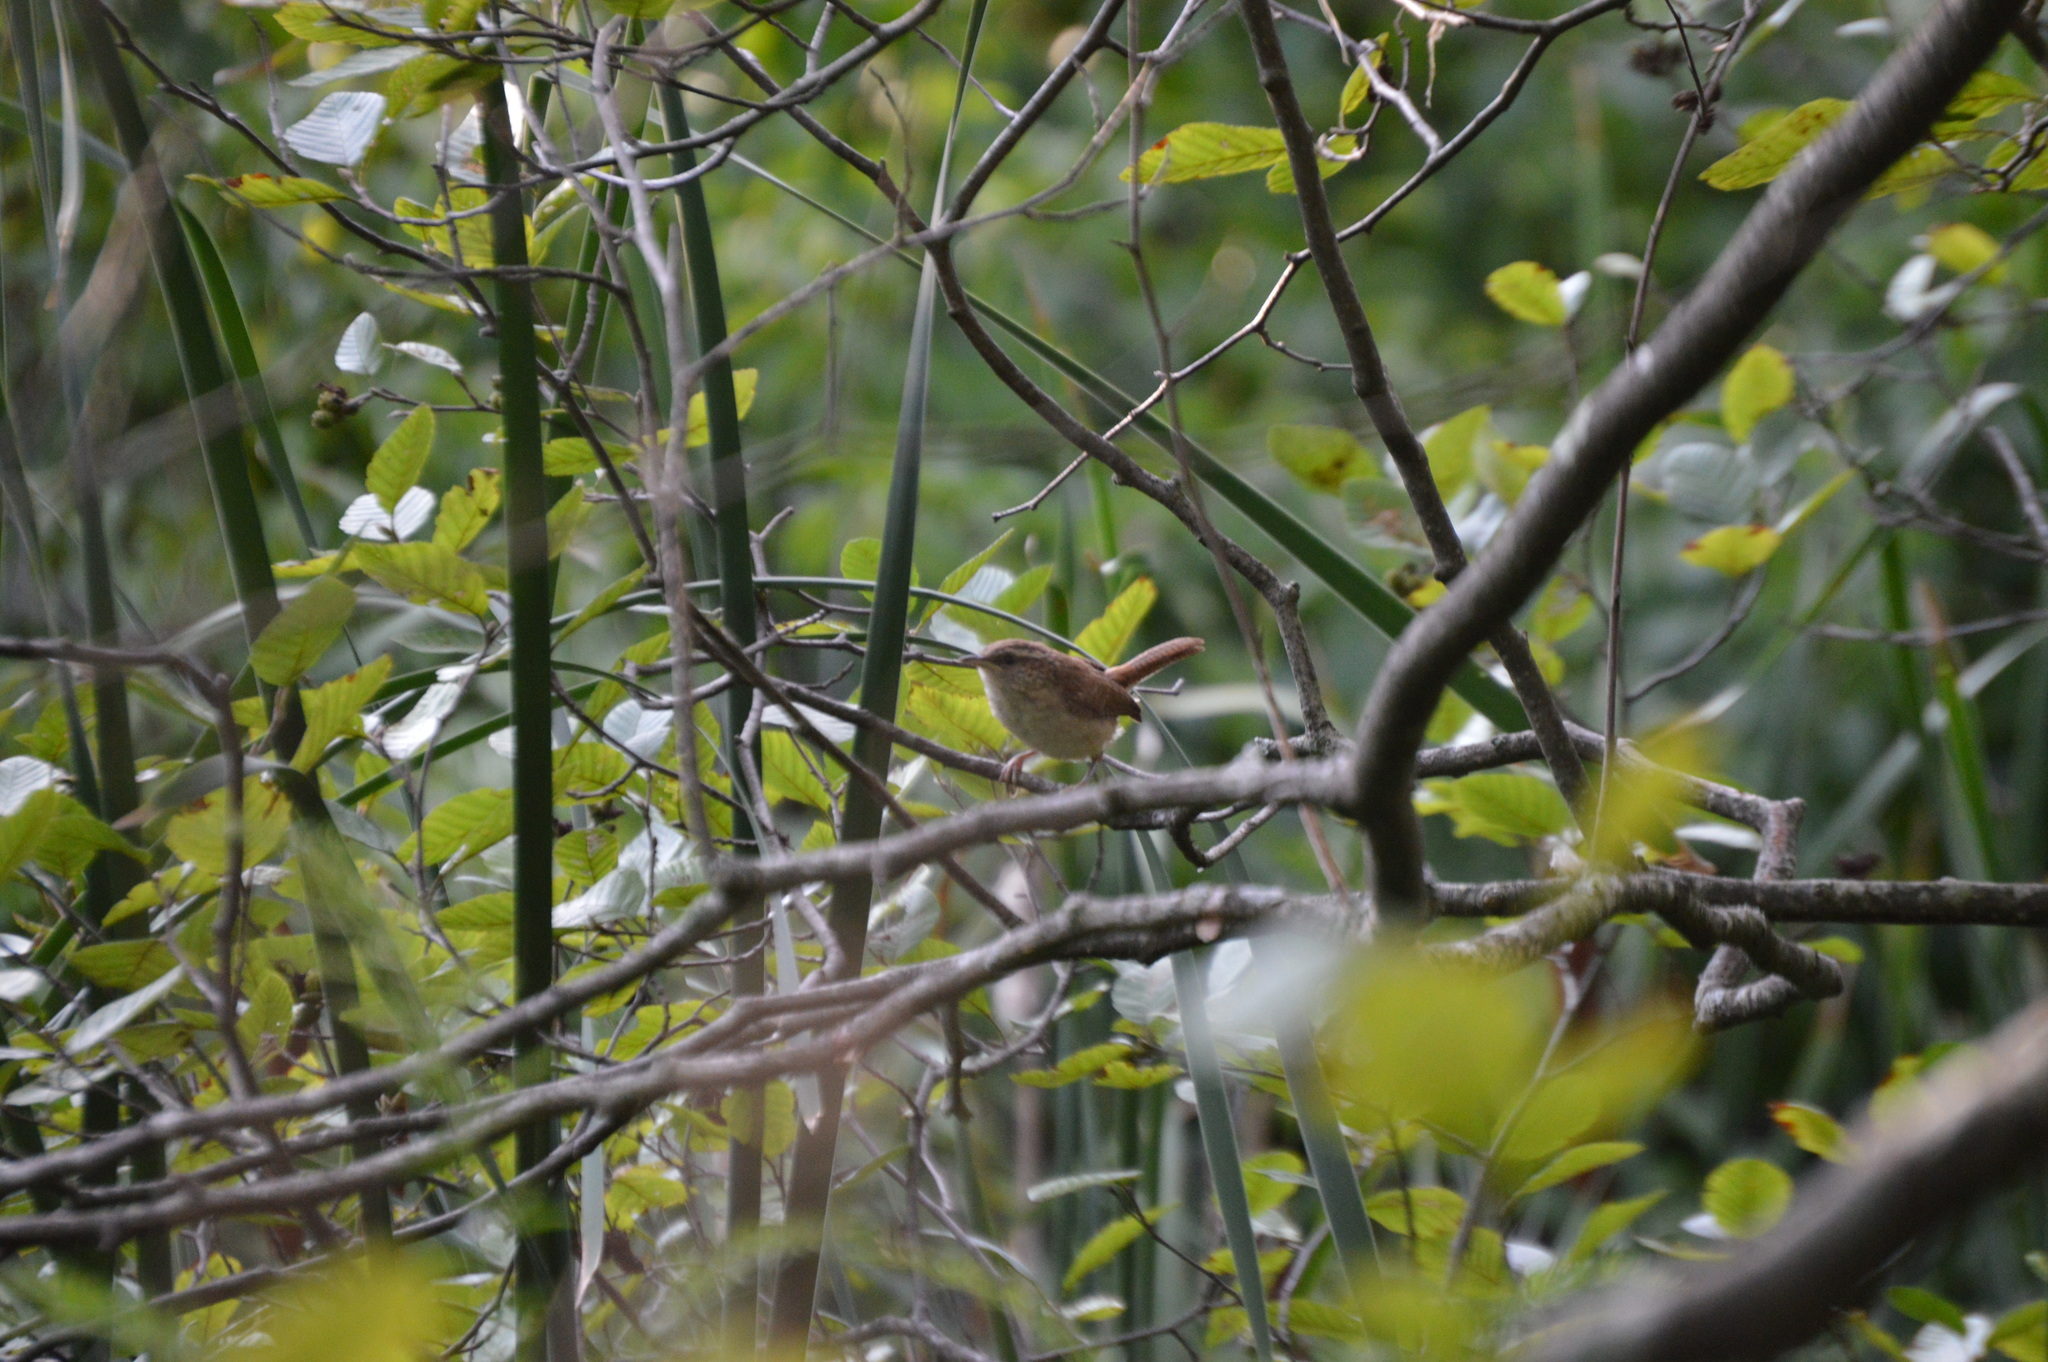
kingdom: Animalia
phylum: Chordata
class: Aves
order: Passeriformes
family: Troglodytidae
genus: Thryothorus
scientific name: Thryothorus ludovicianus
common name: Carolina wren
